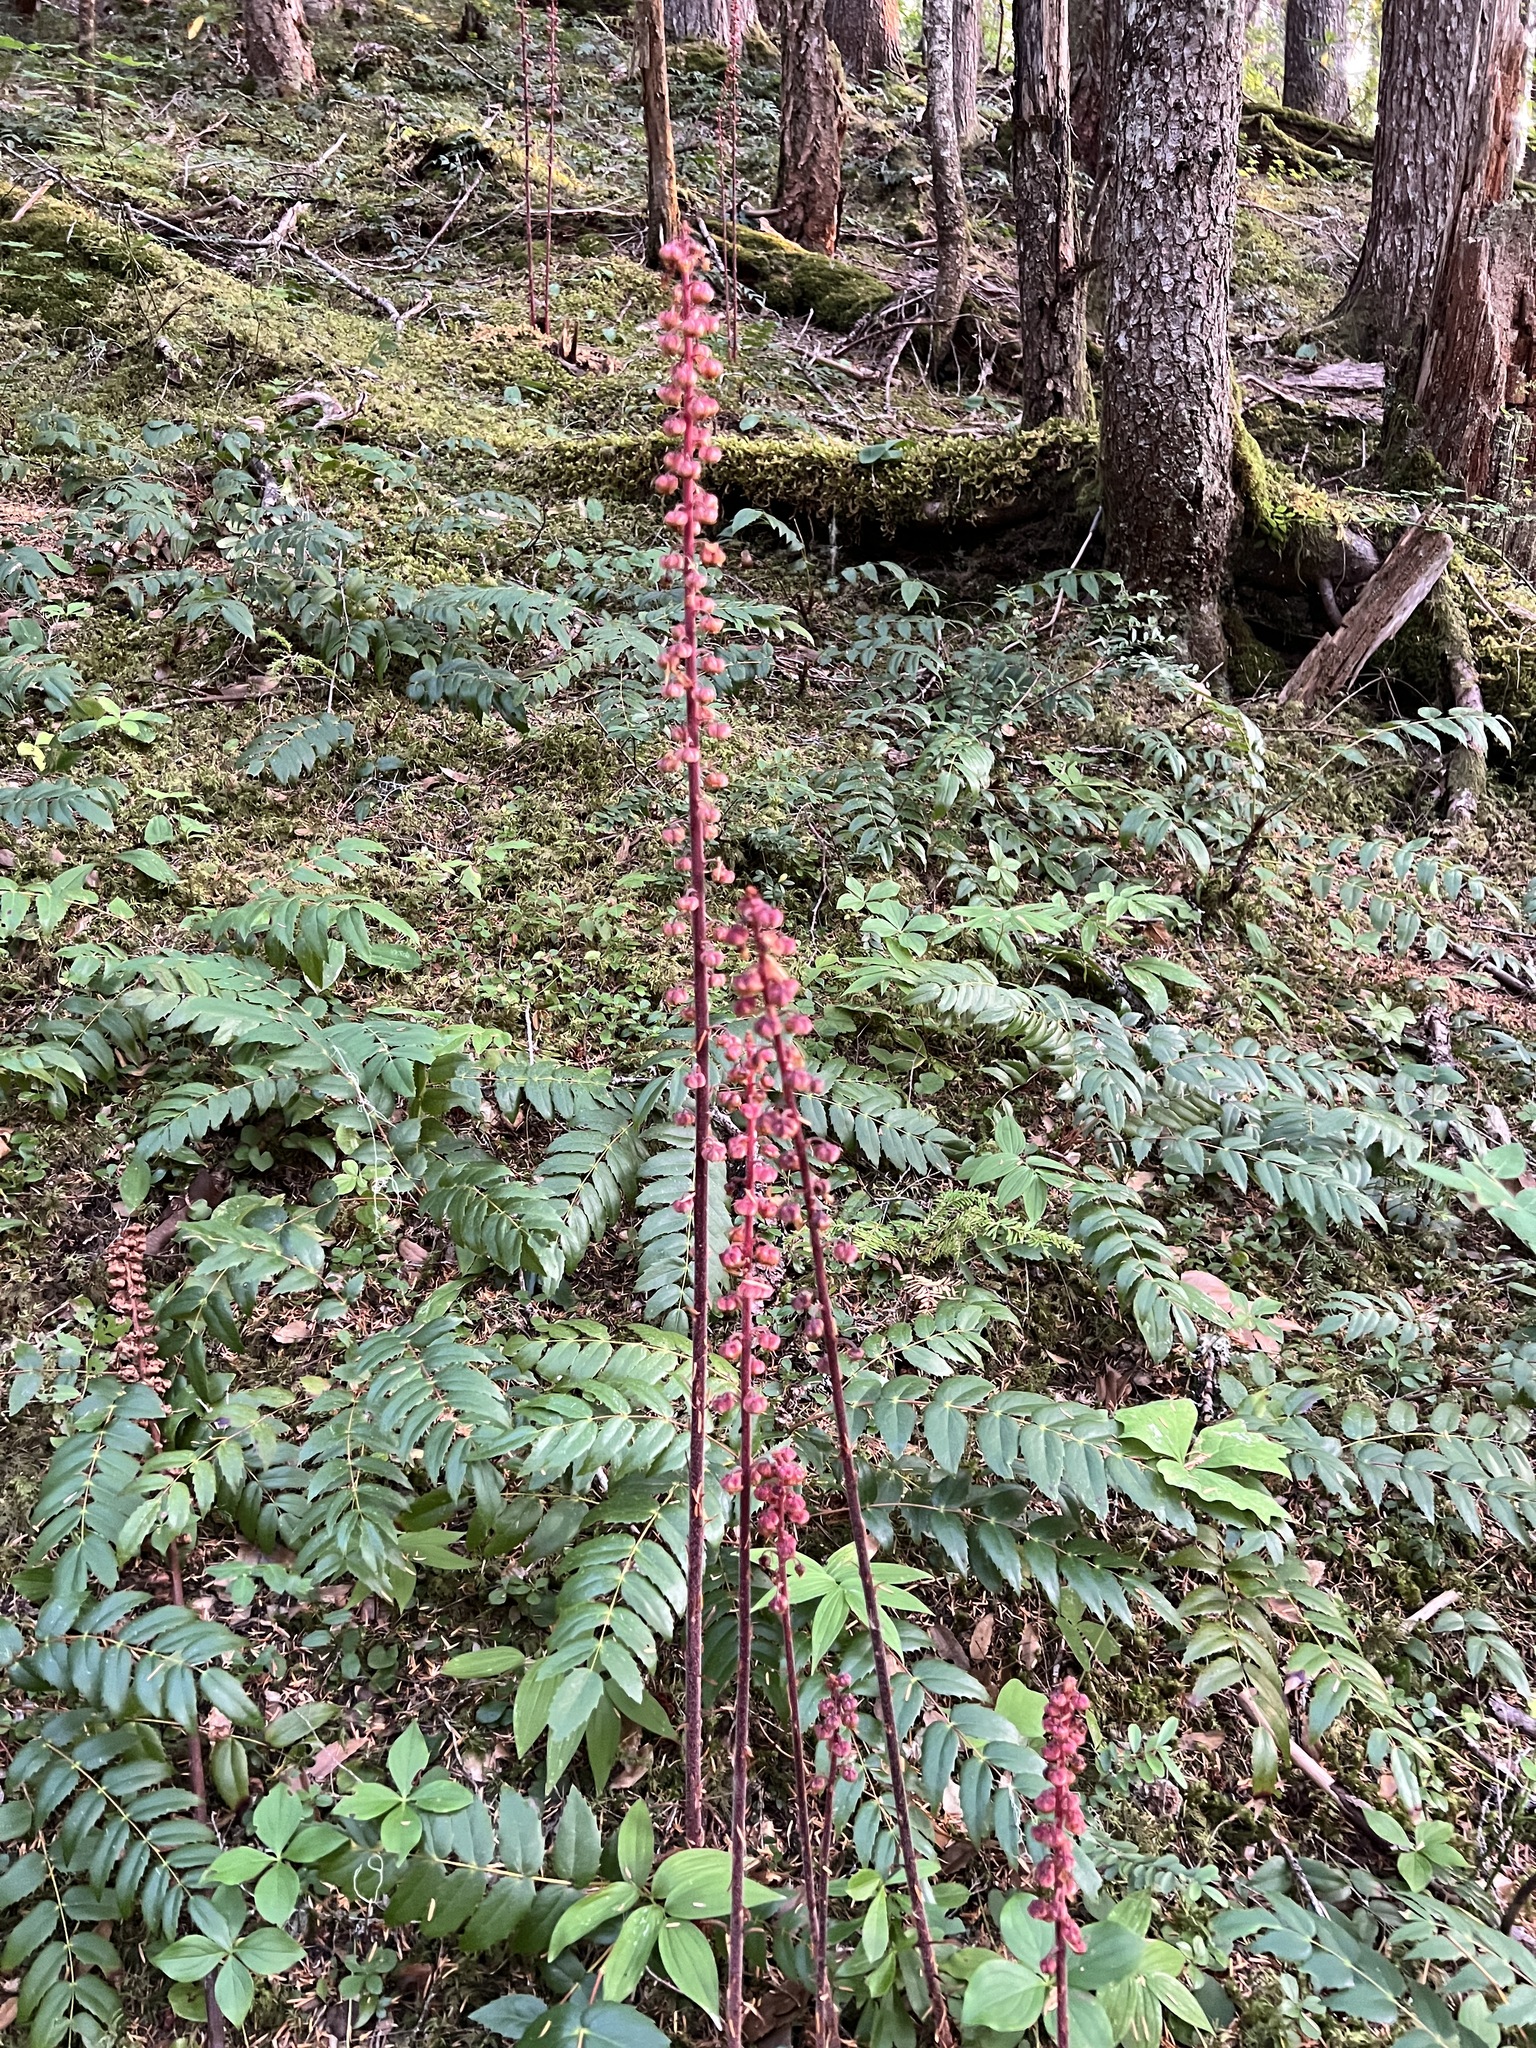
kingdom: Plantae
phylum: Tracheophyta
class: Magnoliopsida
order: Ericales
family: Ericaceae
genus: Pterospora
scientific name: Pterospora andromedea
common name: Giant bird's-nest
